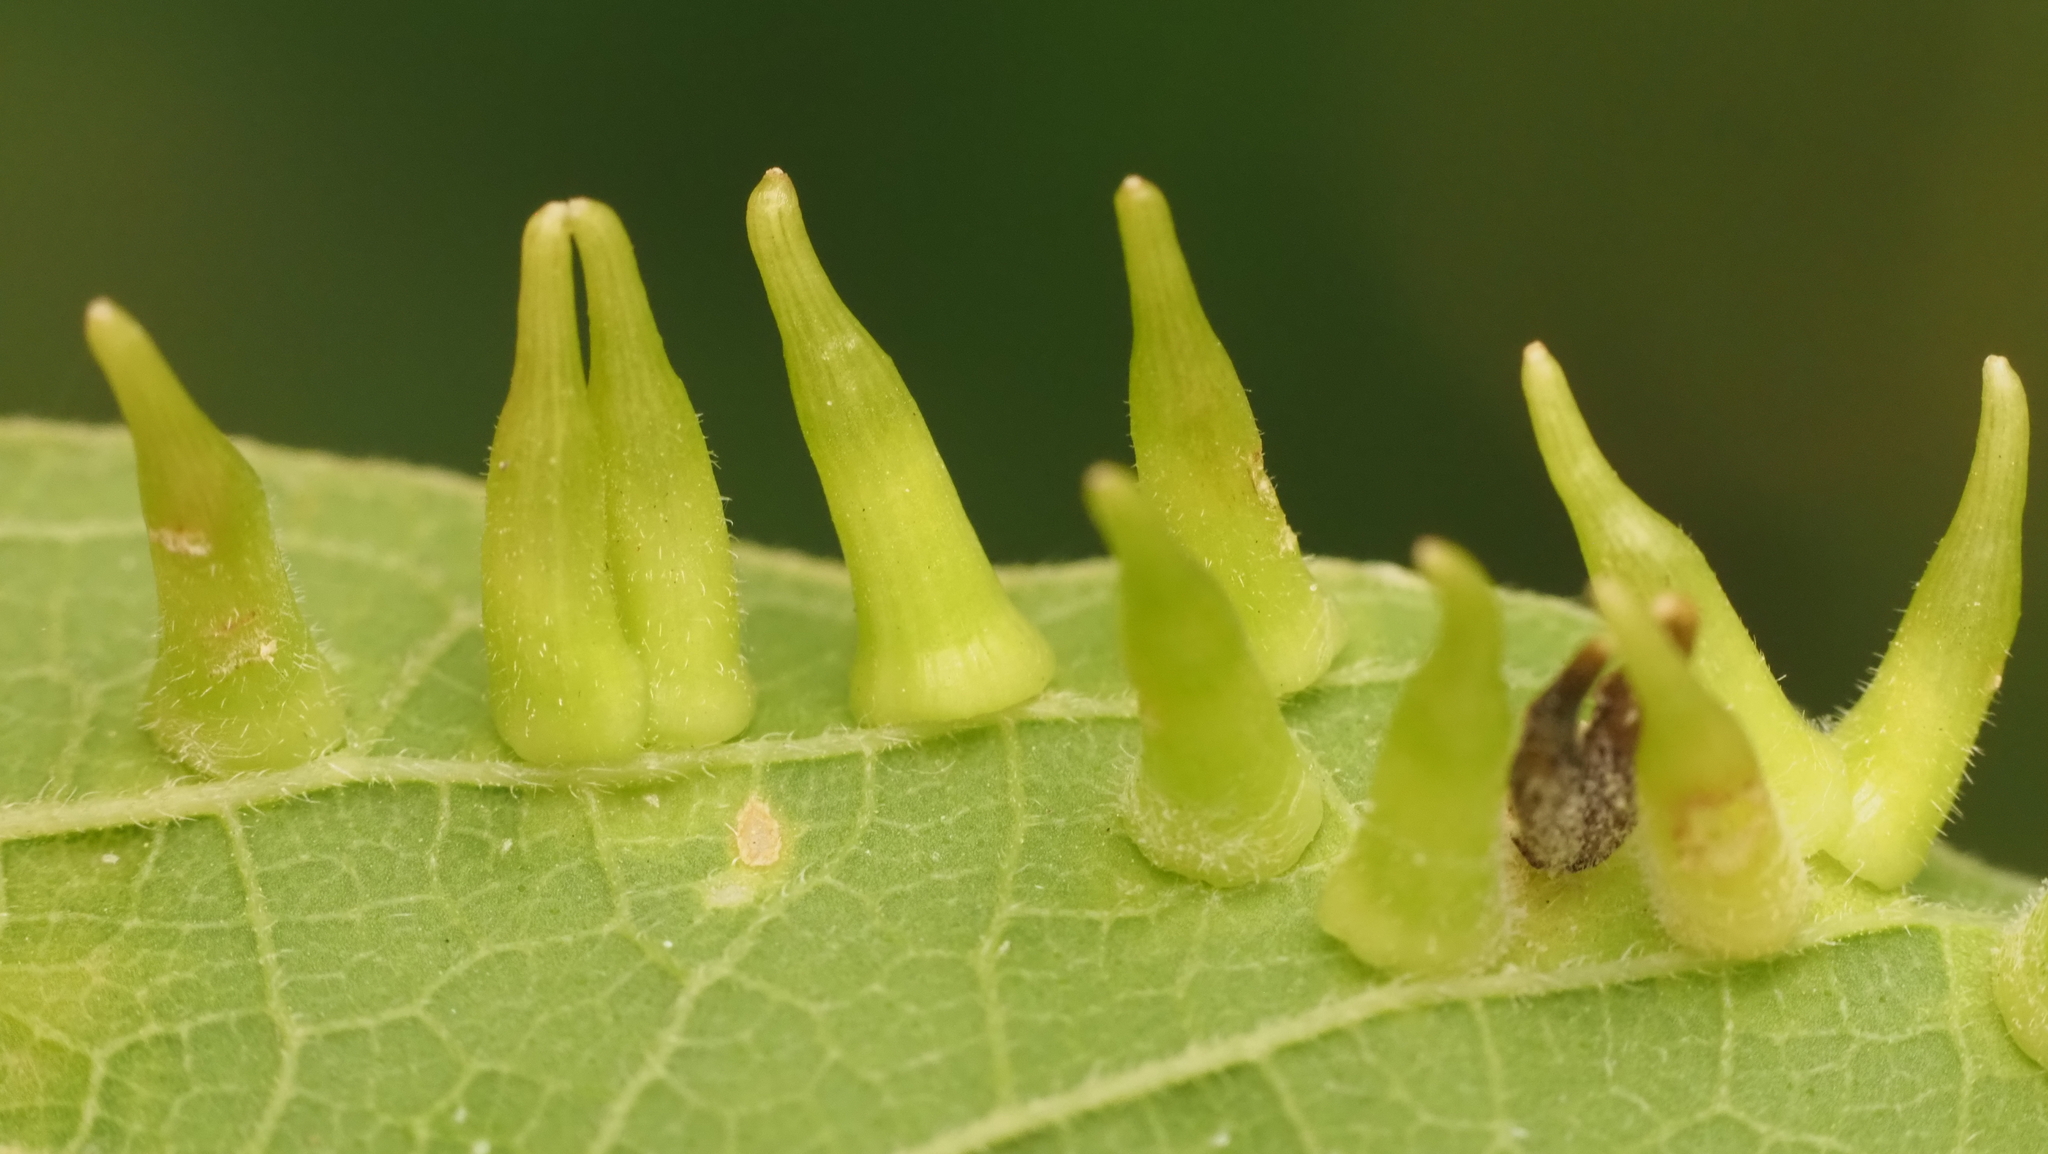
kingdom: Animalia
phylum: Arthropoda
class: Insecta
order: Diptera
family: Cecidomyiidae
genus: Celticecis
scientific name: Celticecis subulata
